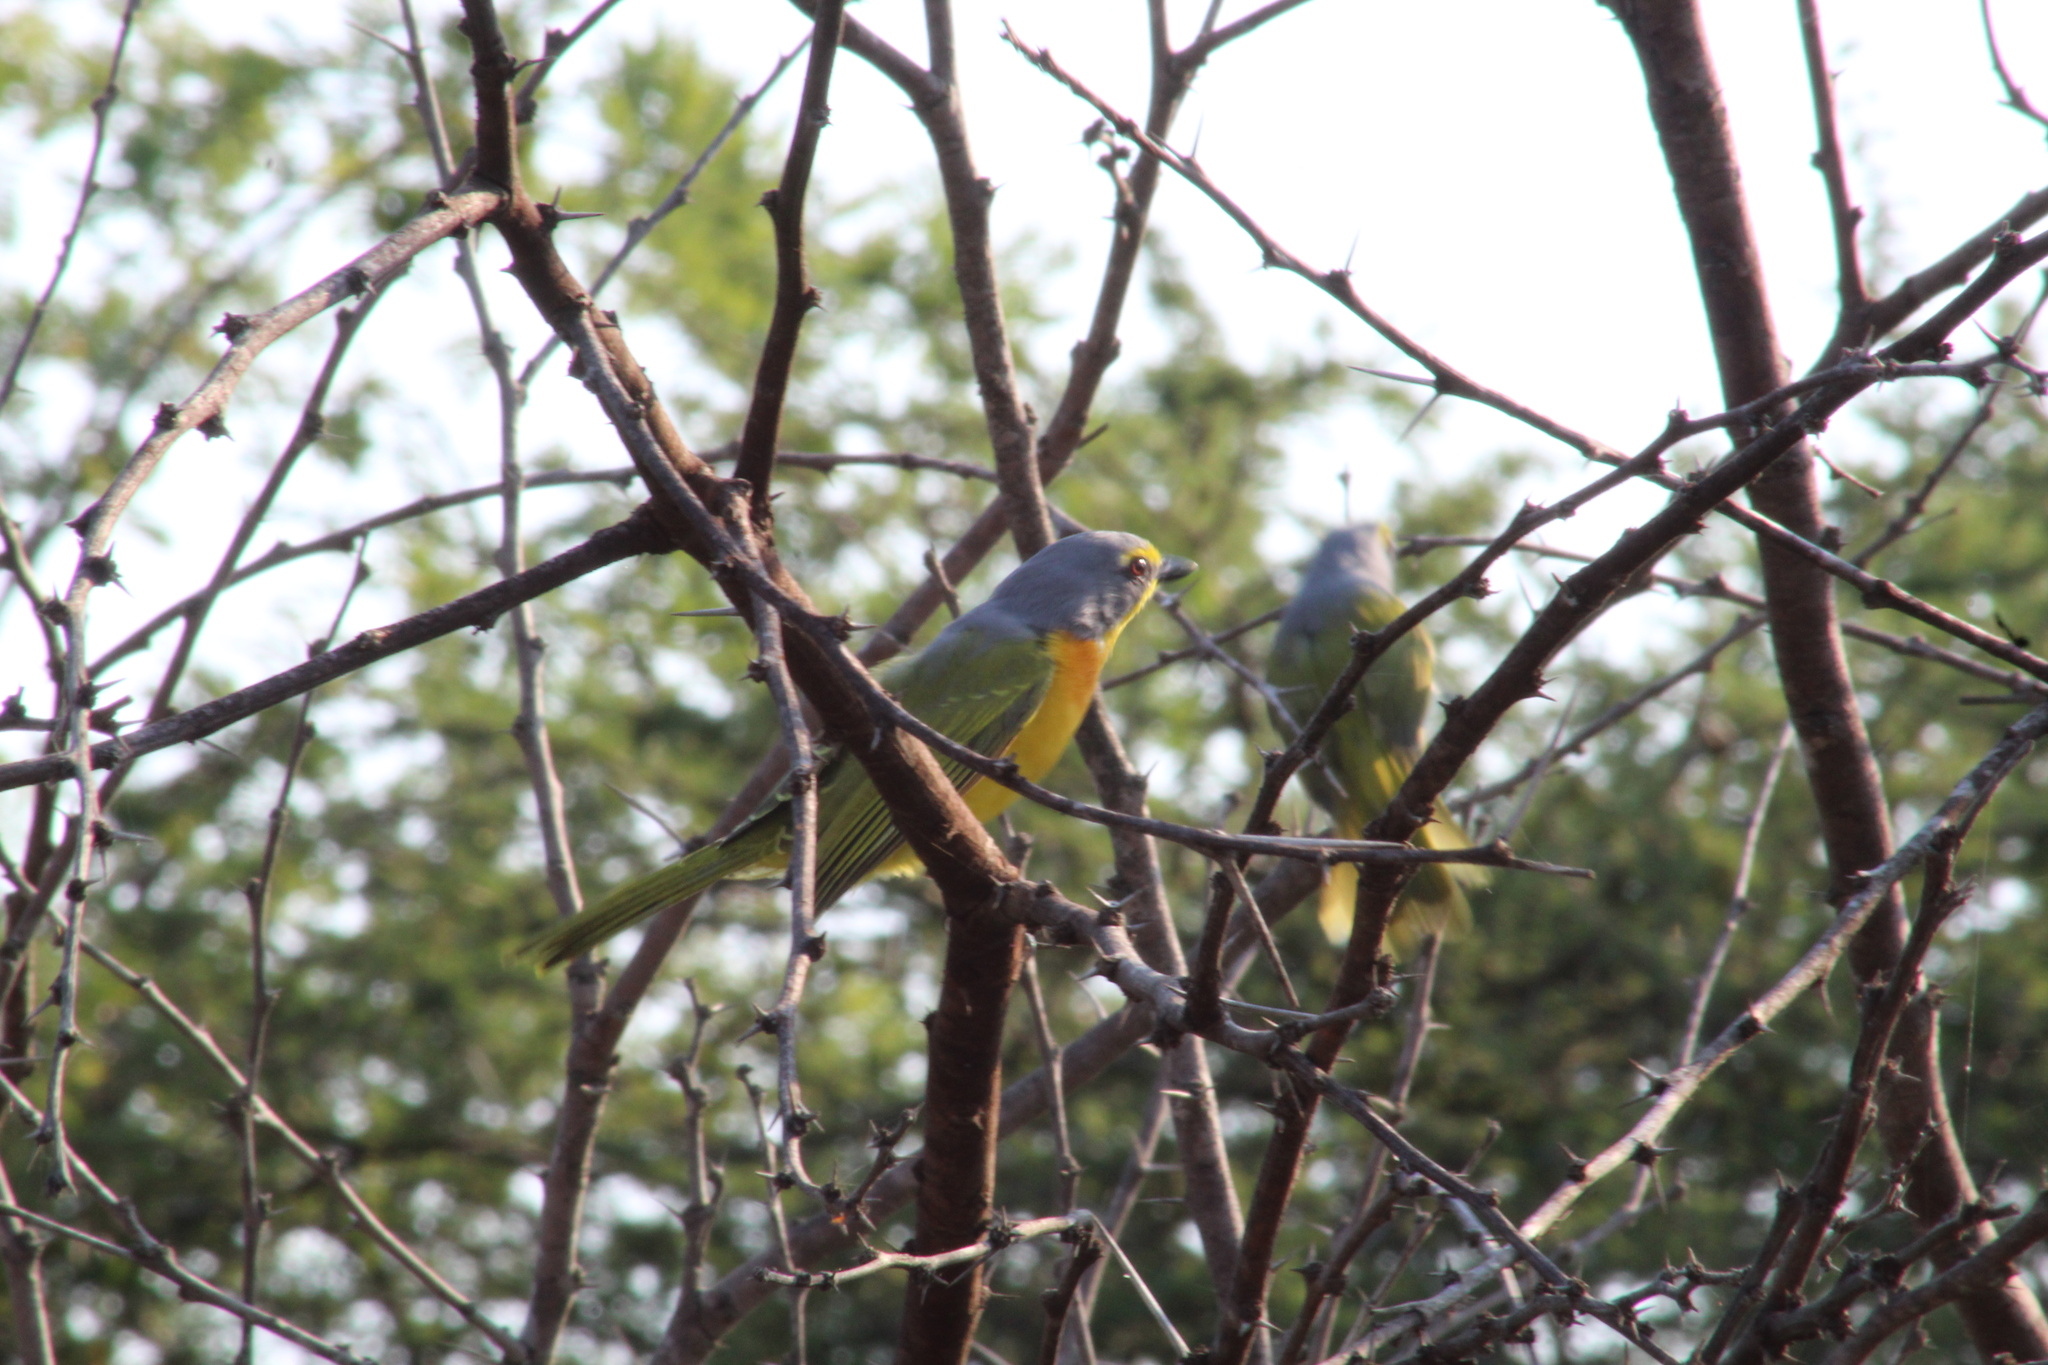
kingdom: Animalia
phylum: Chordata
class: Aves
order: Passeriformes
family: Malaconotidae
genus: Chlorophoneus
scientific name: Chlorophoneus sulfureopectus
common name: Orange-breasted bushshrike
